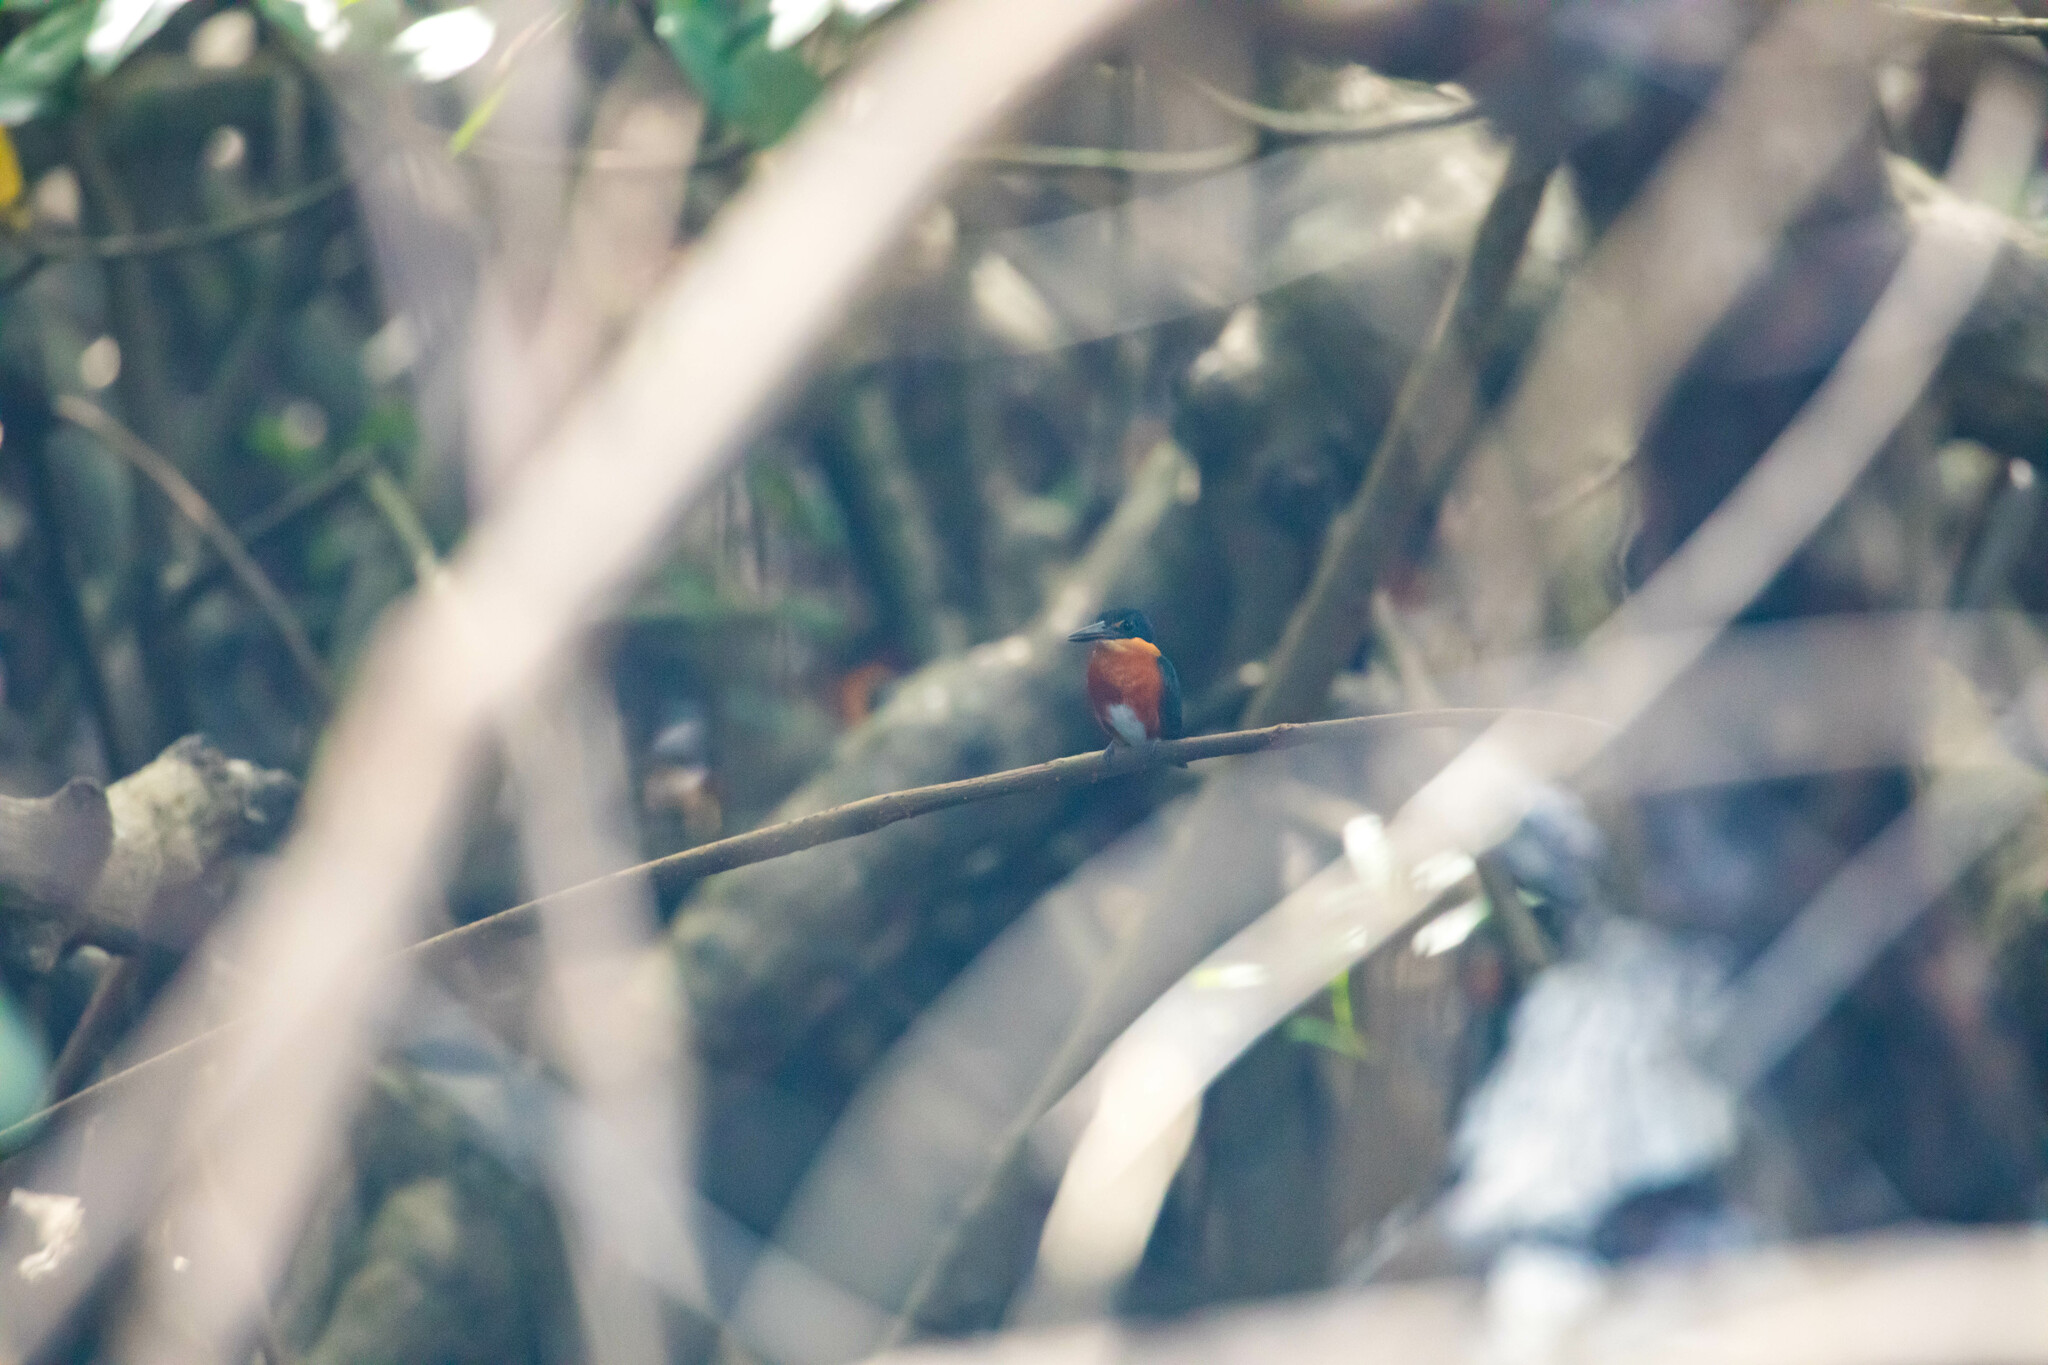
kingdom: Animalia
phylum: Chordata
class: Aves
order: Coraciiformes
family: Alcedinidae
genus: Chloroceryle
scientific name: Chloroceryle aenea
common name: American pygmy kingfisher
